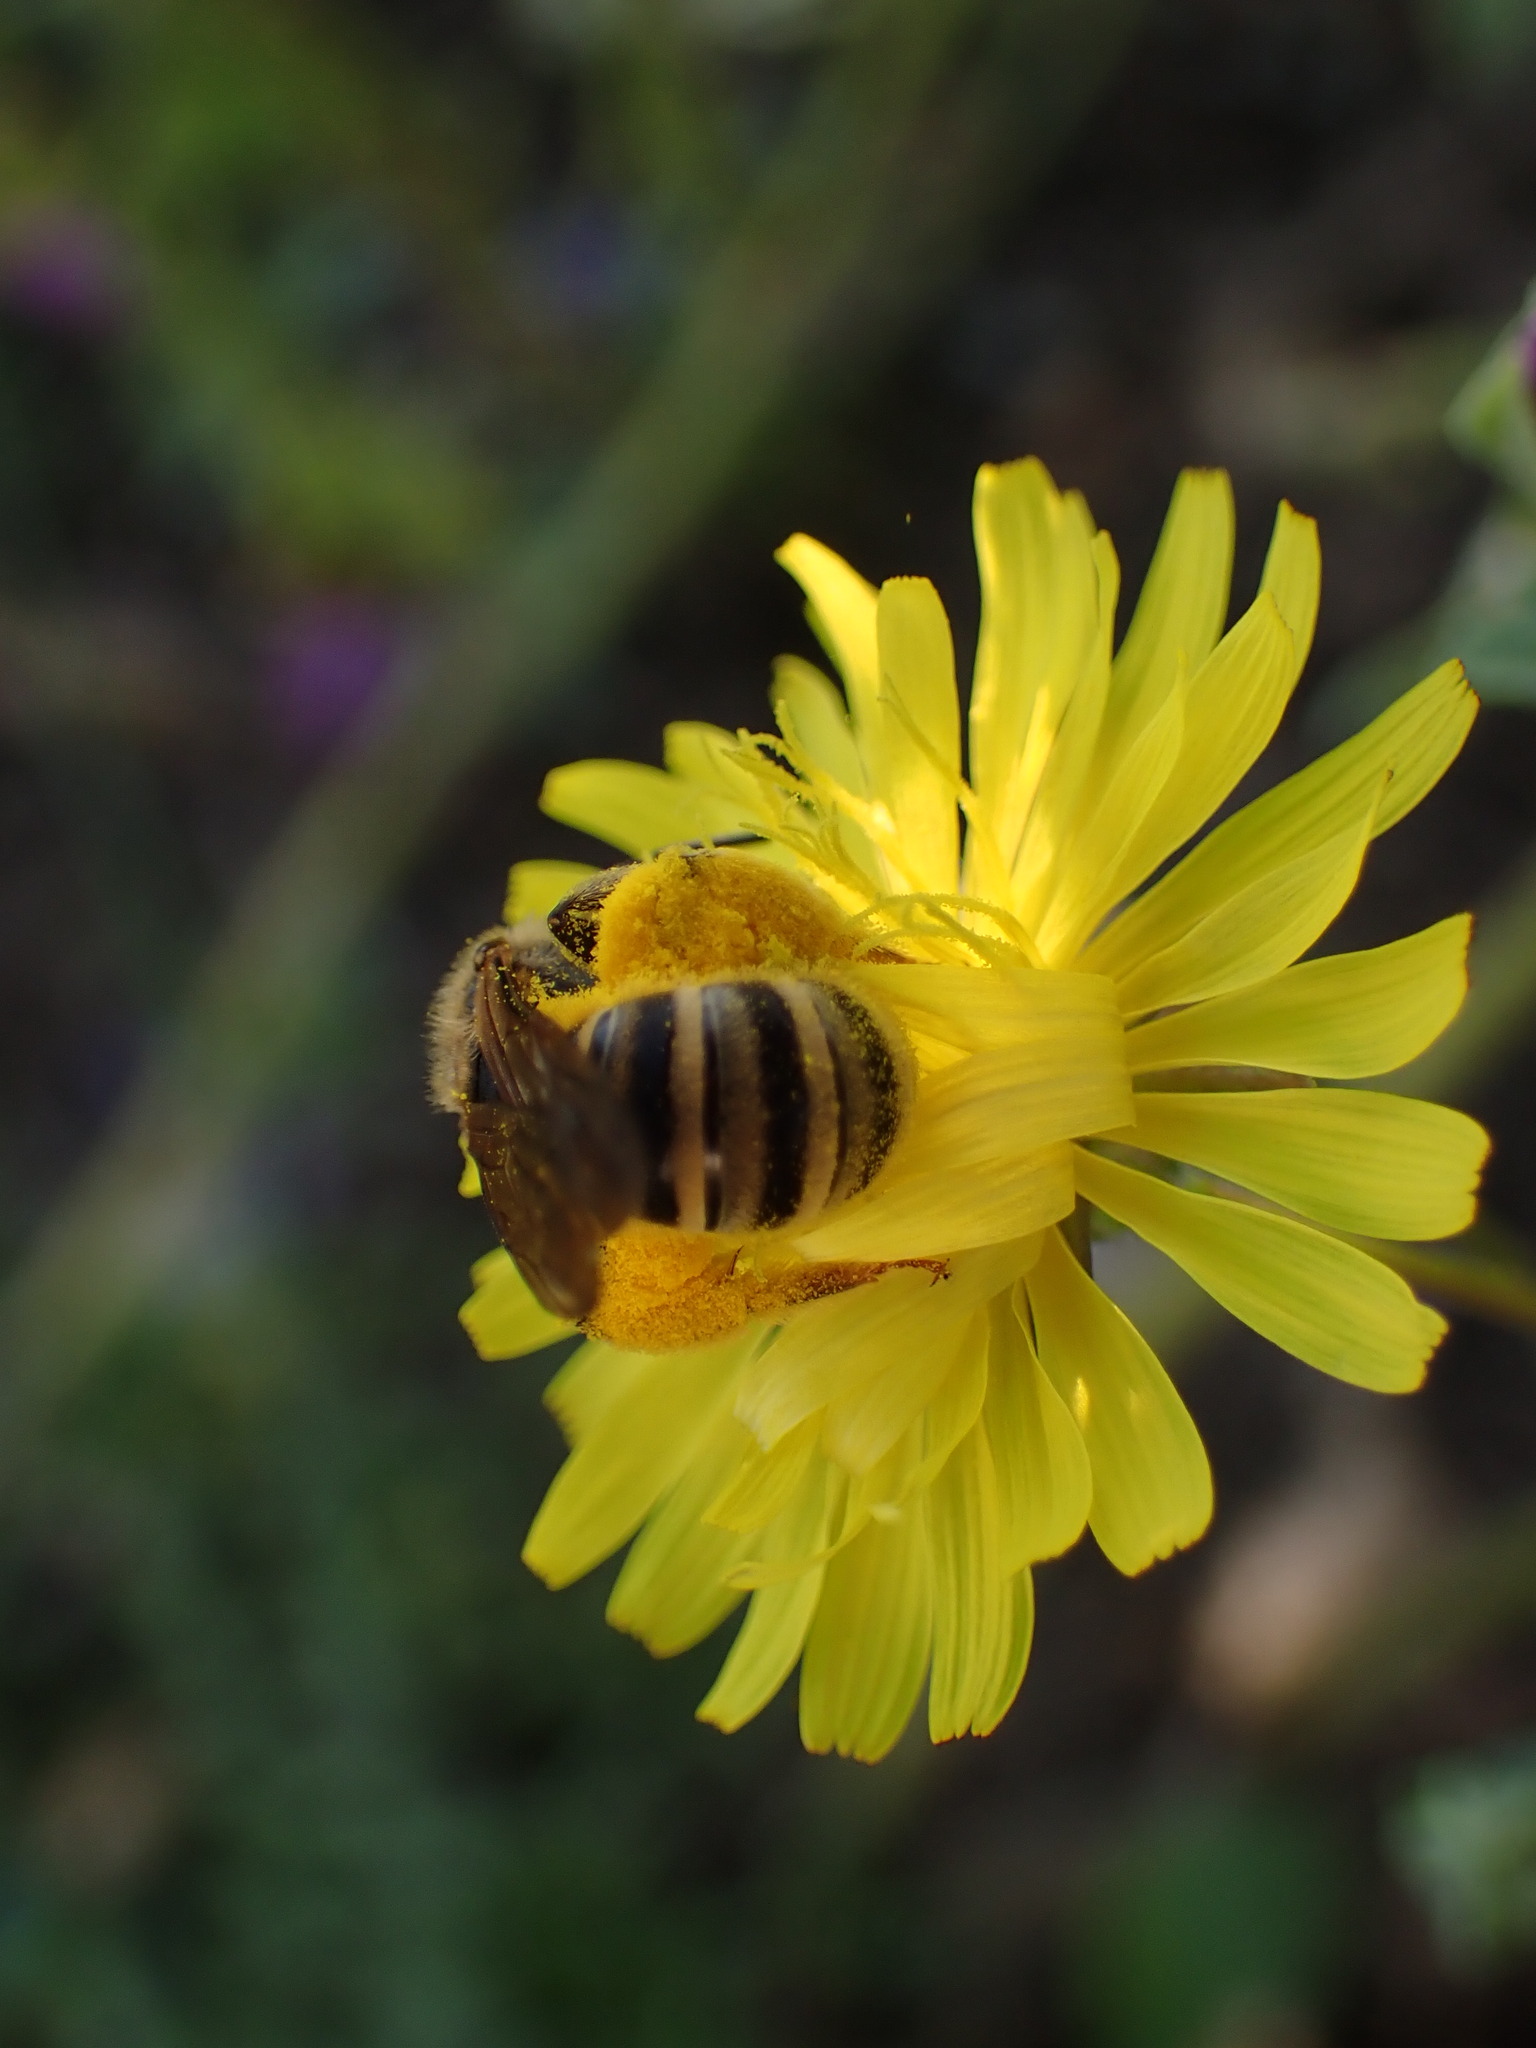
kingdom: Animalia
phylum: Arthropoda
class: Insecta
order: Hymenoptera
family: Halictidae
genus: Halictus
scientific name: Halictus scabiosae
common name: Great banded furrow bee
